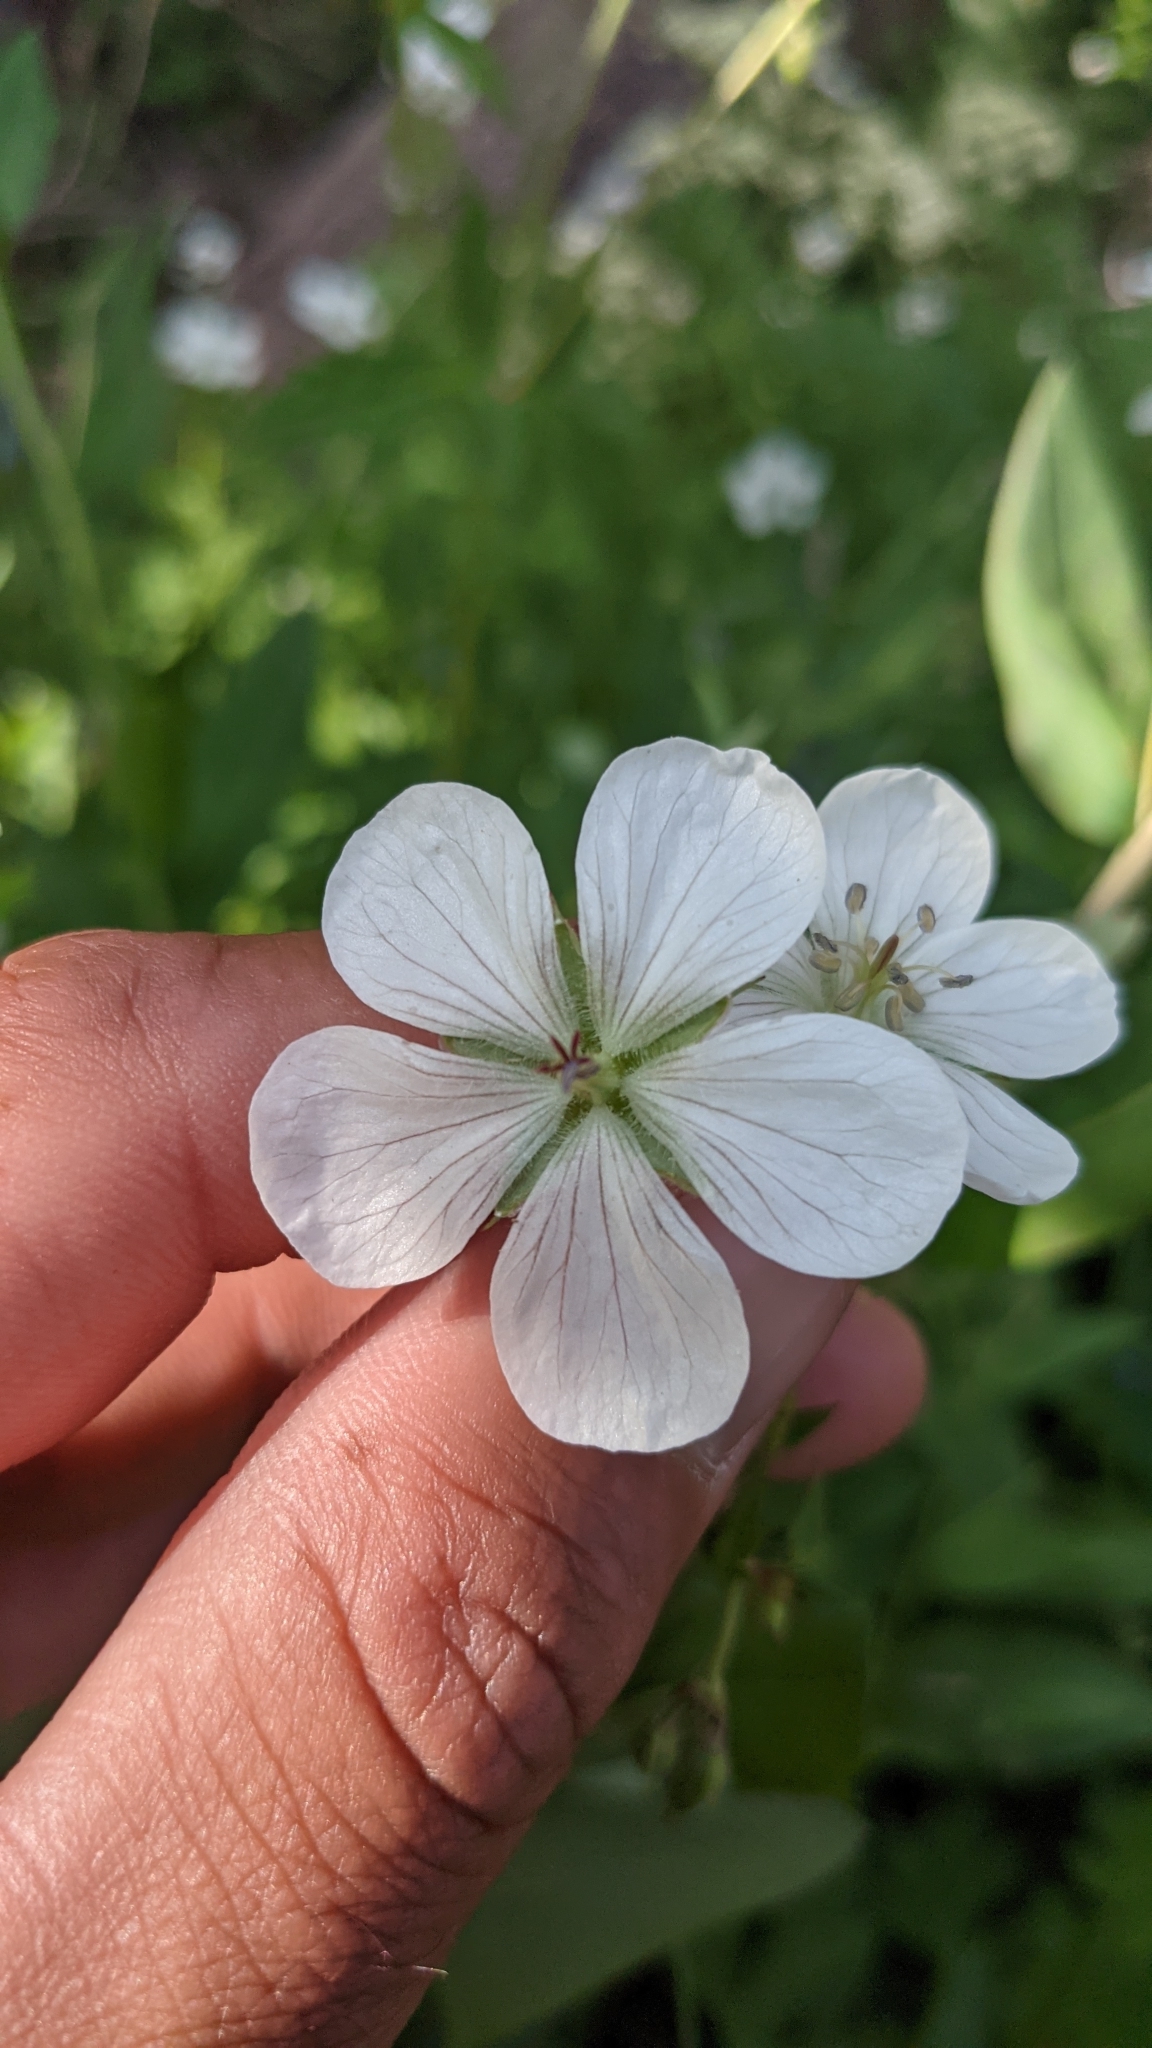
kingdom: Plantae
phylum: Tracheophyta
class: Magnoliopsida
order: Geraniales
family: Geraniaceae
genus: Geranium
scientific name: Geranium richardsonii
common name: Richardson's crane's-bill
